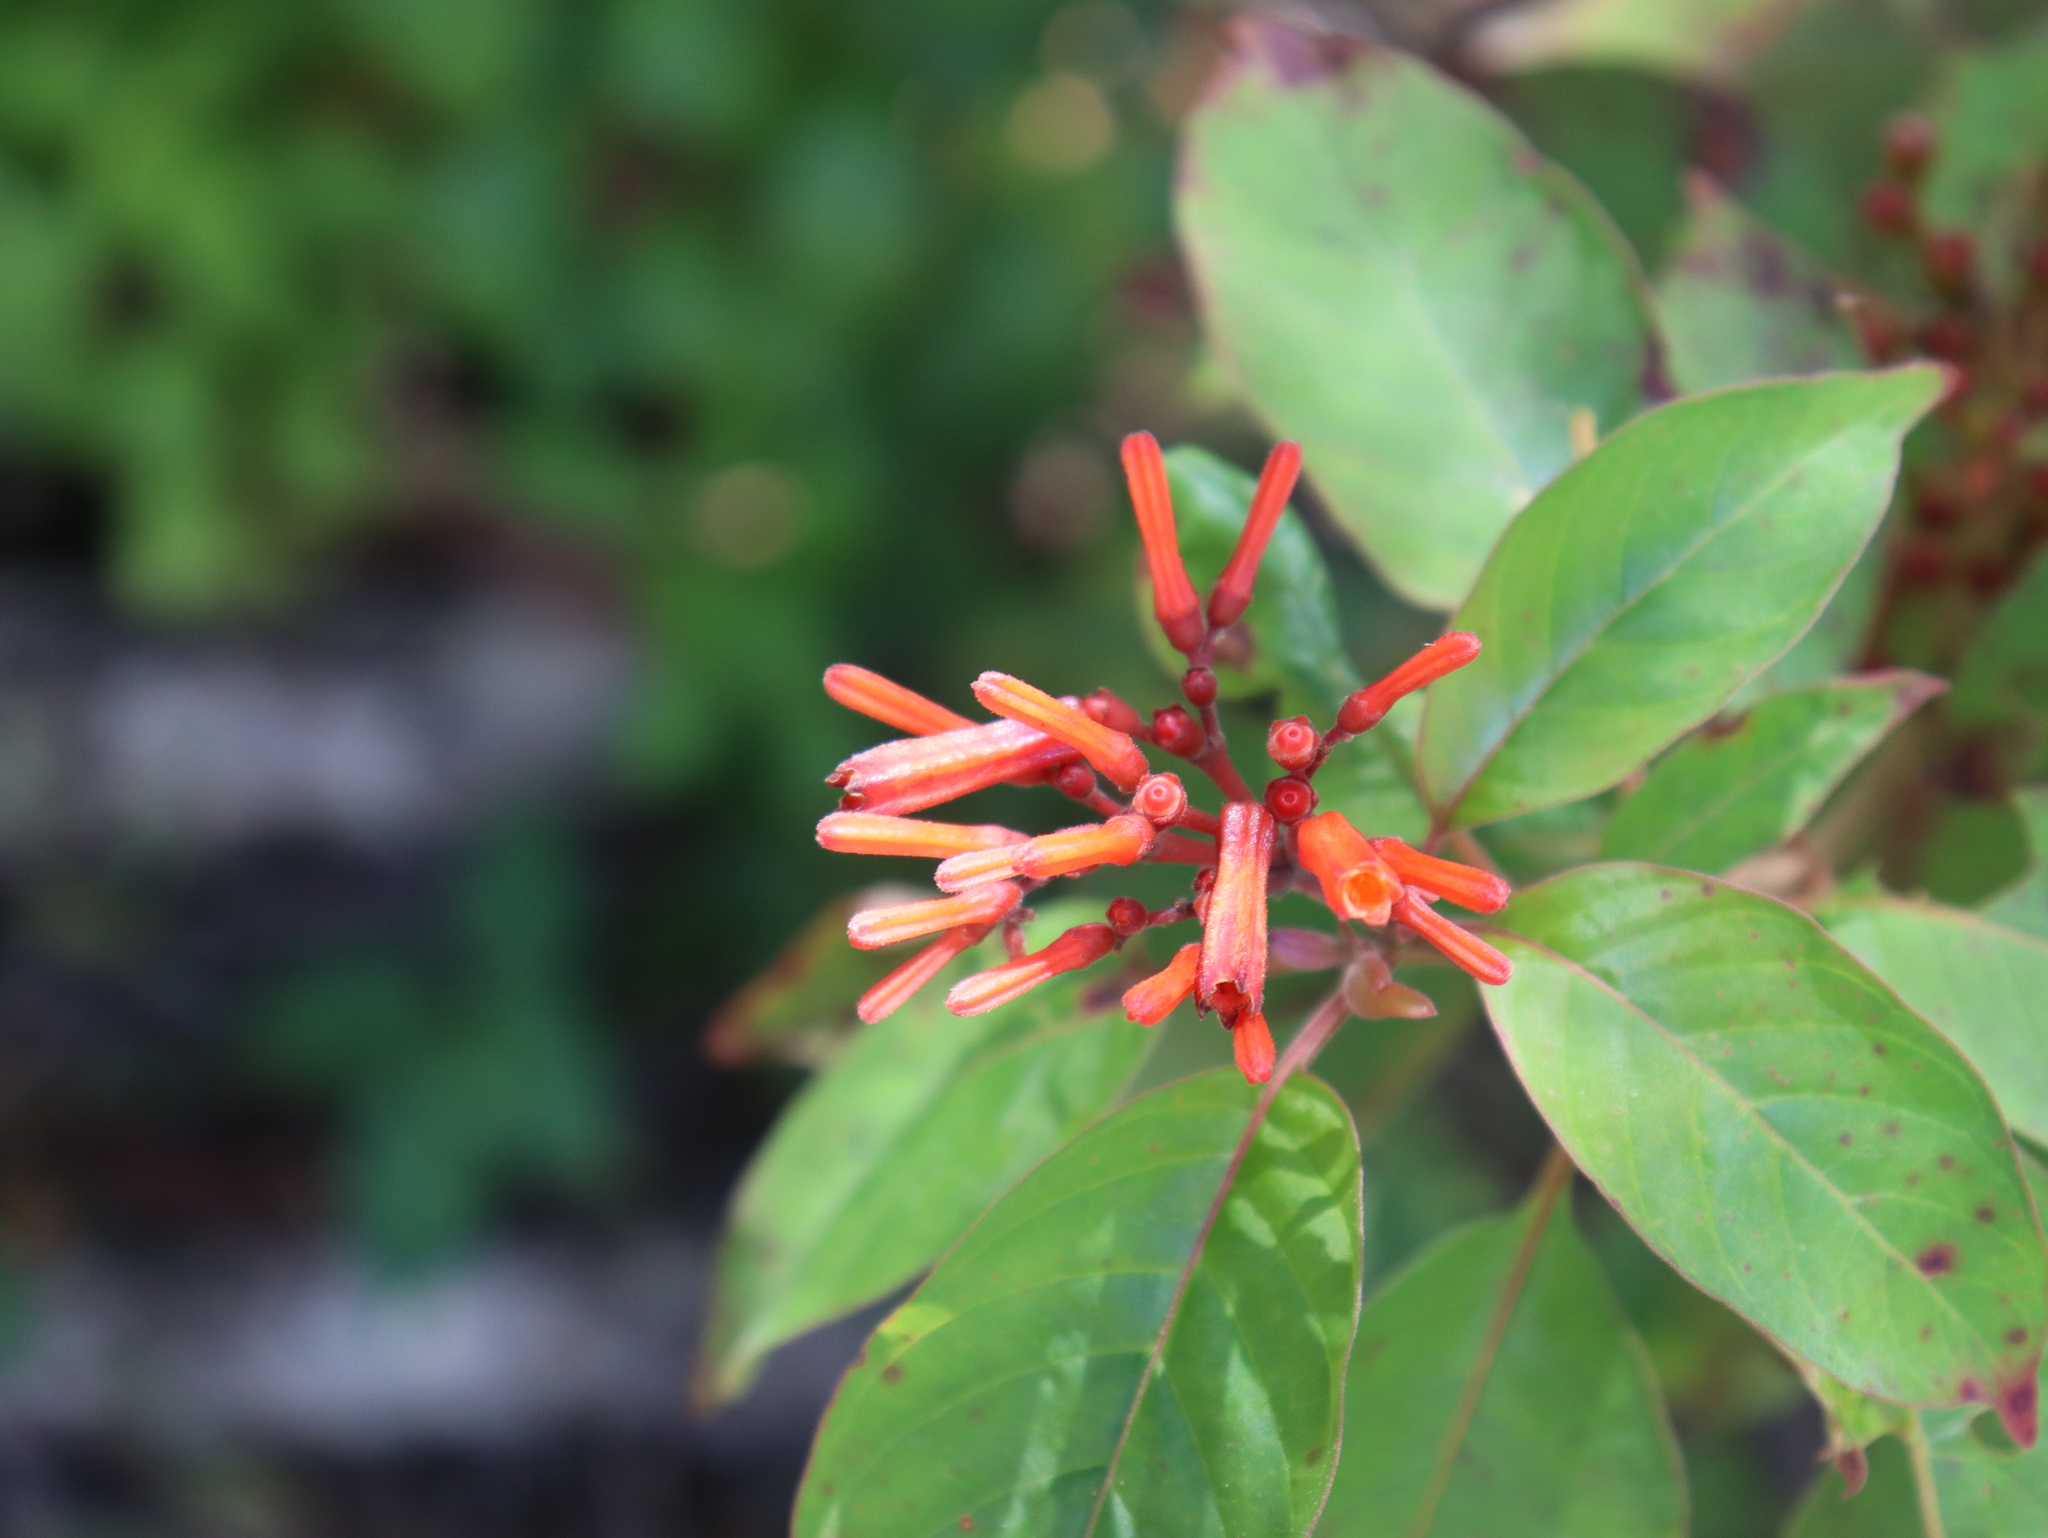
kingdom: Plantae
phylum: Tracheophyta
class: Magnoliopsida
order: Gentianales
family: Rubiaceae
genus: Hamelia
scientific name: Hamelia patens
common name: Redhead
